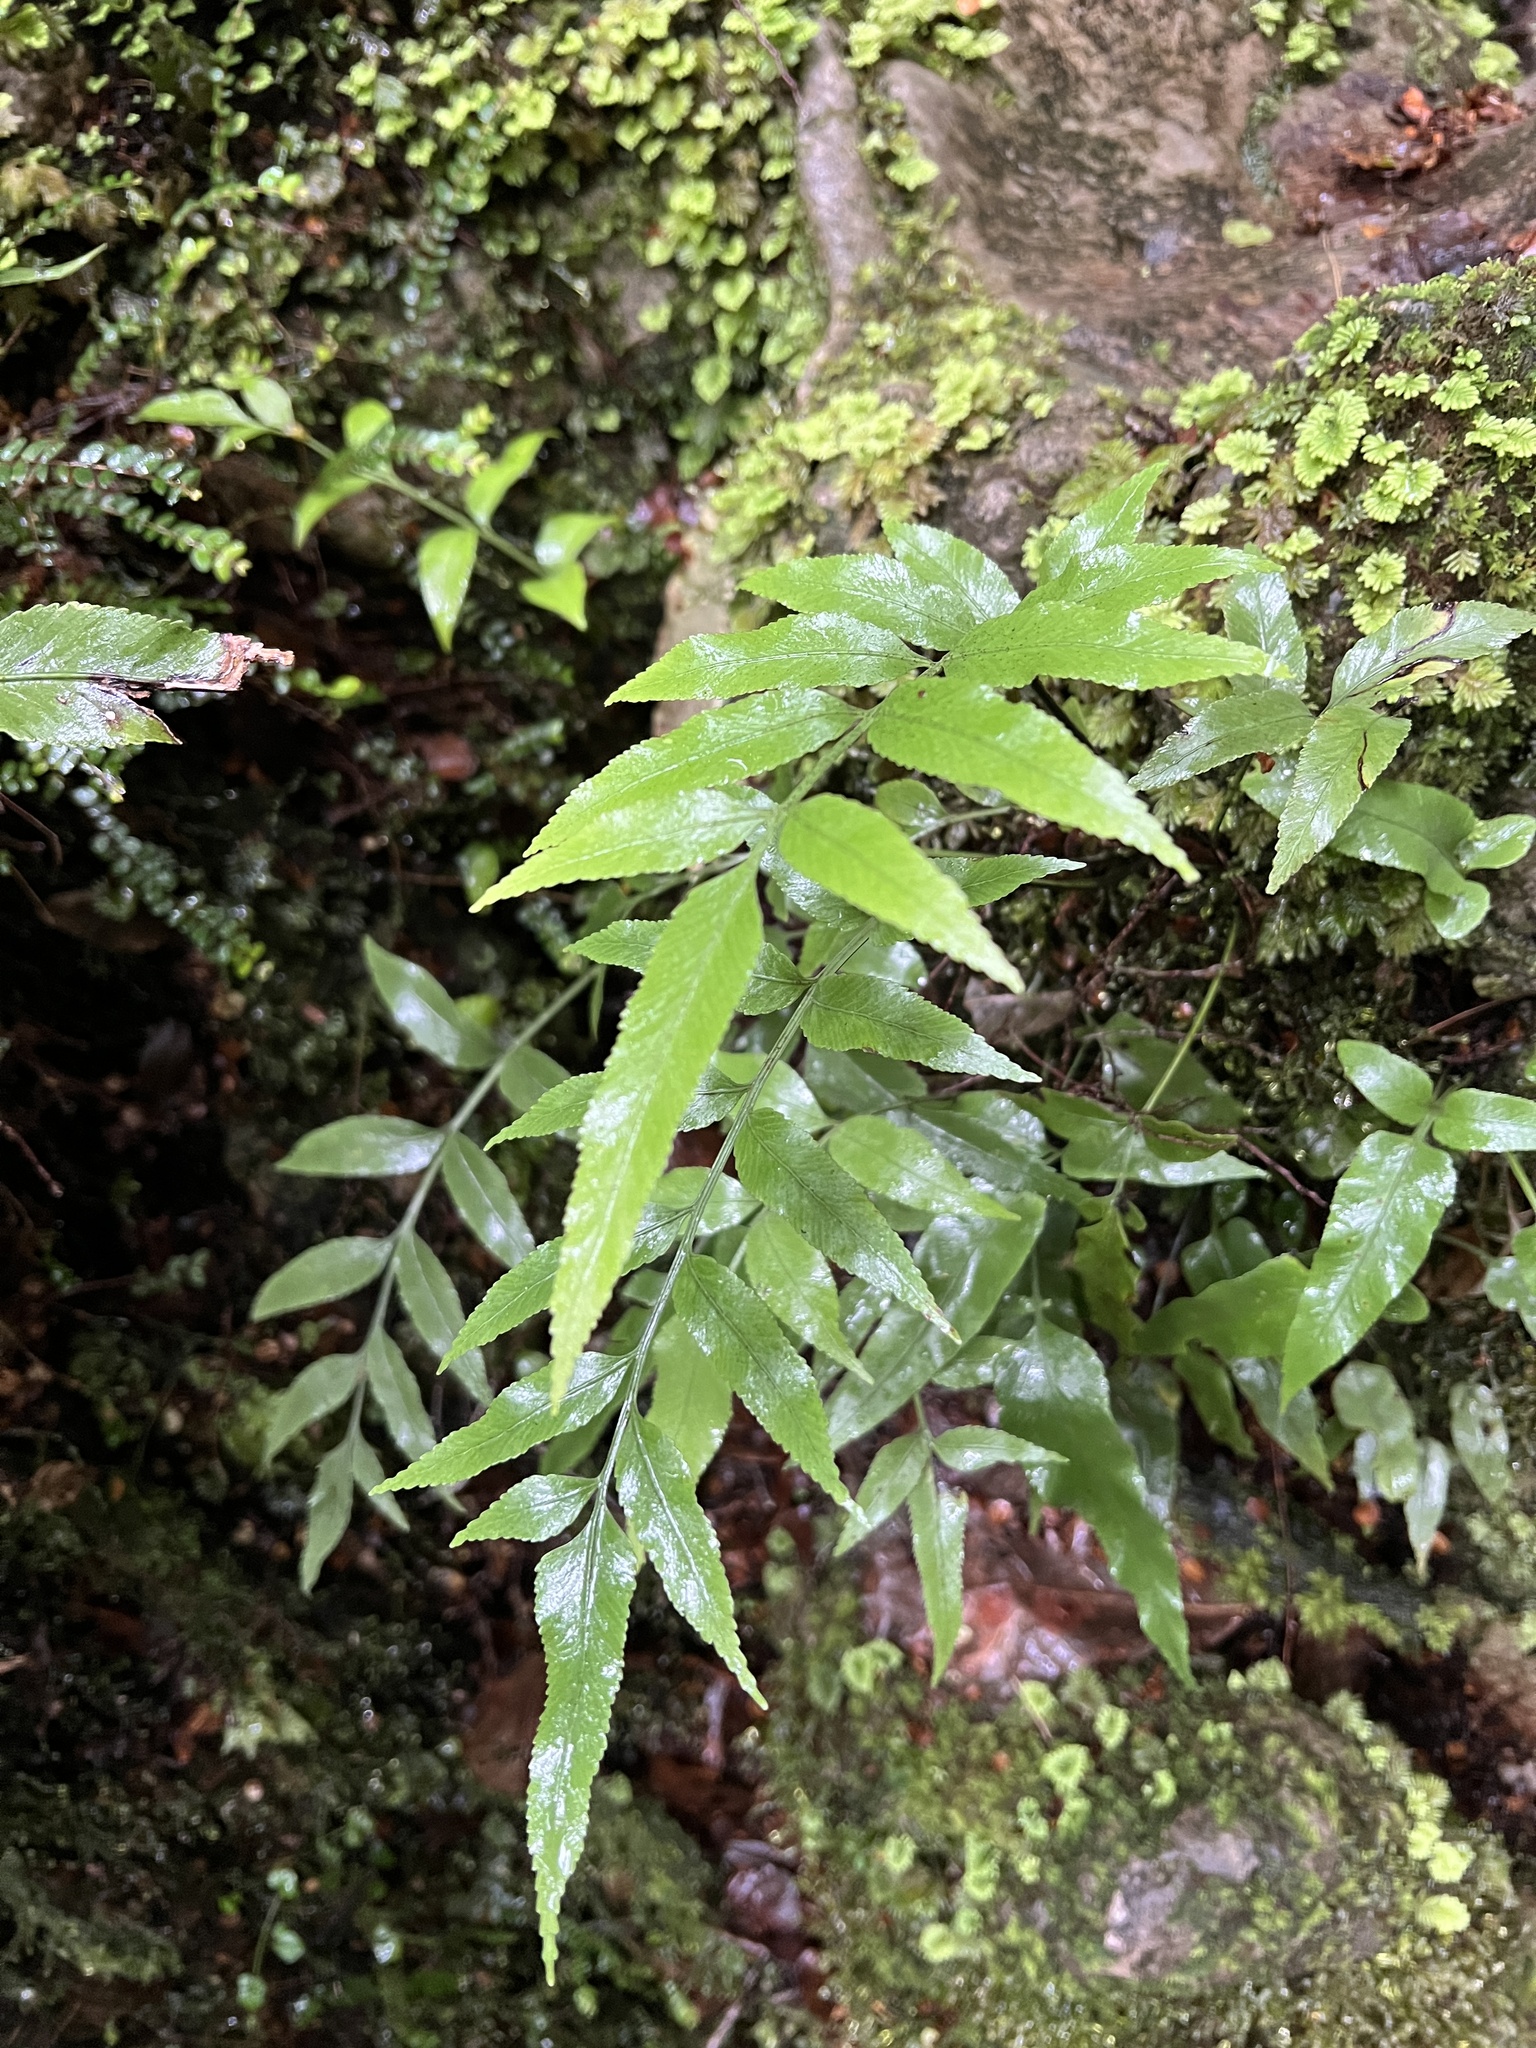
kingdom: Plantae
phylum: Tracheophyta
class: Polypodiopsida
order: Polypodiales
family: Aspleniaceae
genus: Asplenium
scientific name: Asplenium lepidotum
